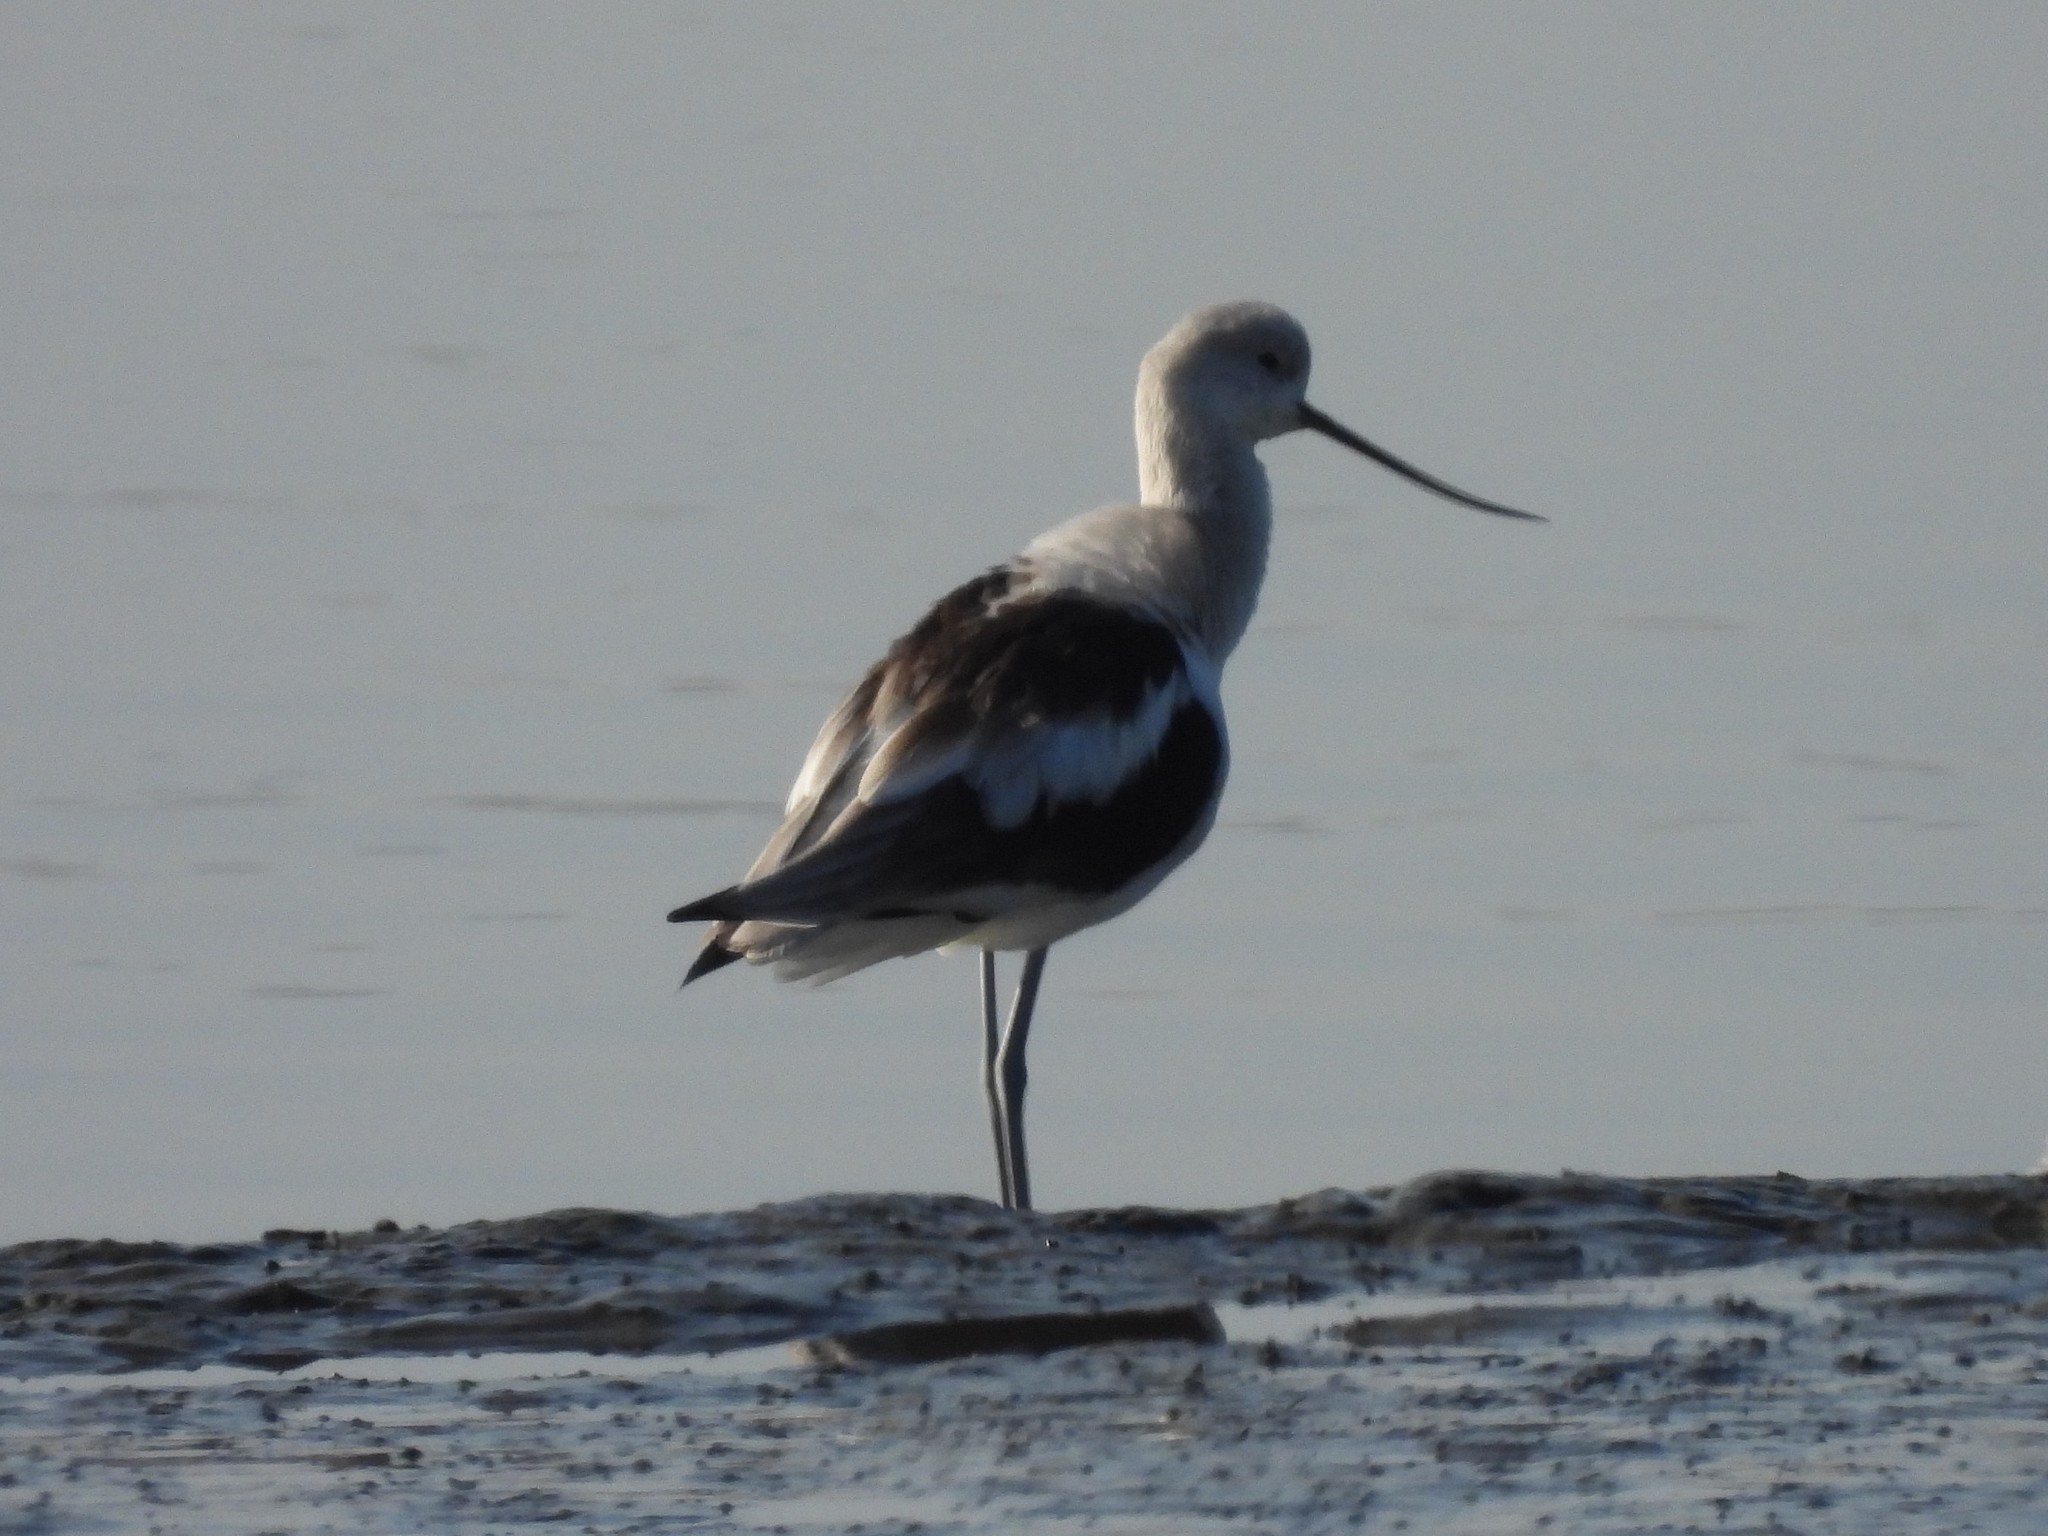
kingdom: Animalia
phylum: Chordata
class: Aves
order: Charadriiformes
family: Recurvirostridae
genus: Recurvirostra
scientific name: Recurvirostra americana
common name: American avocet
